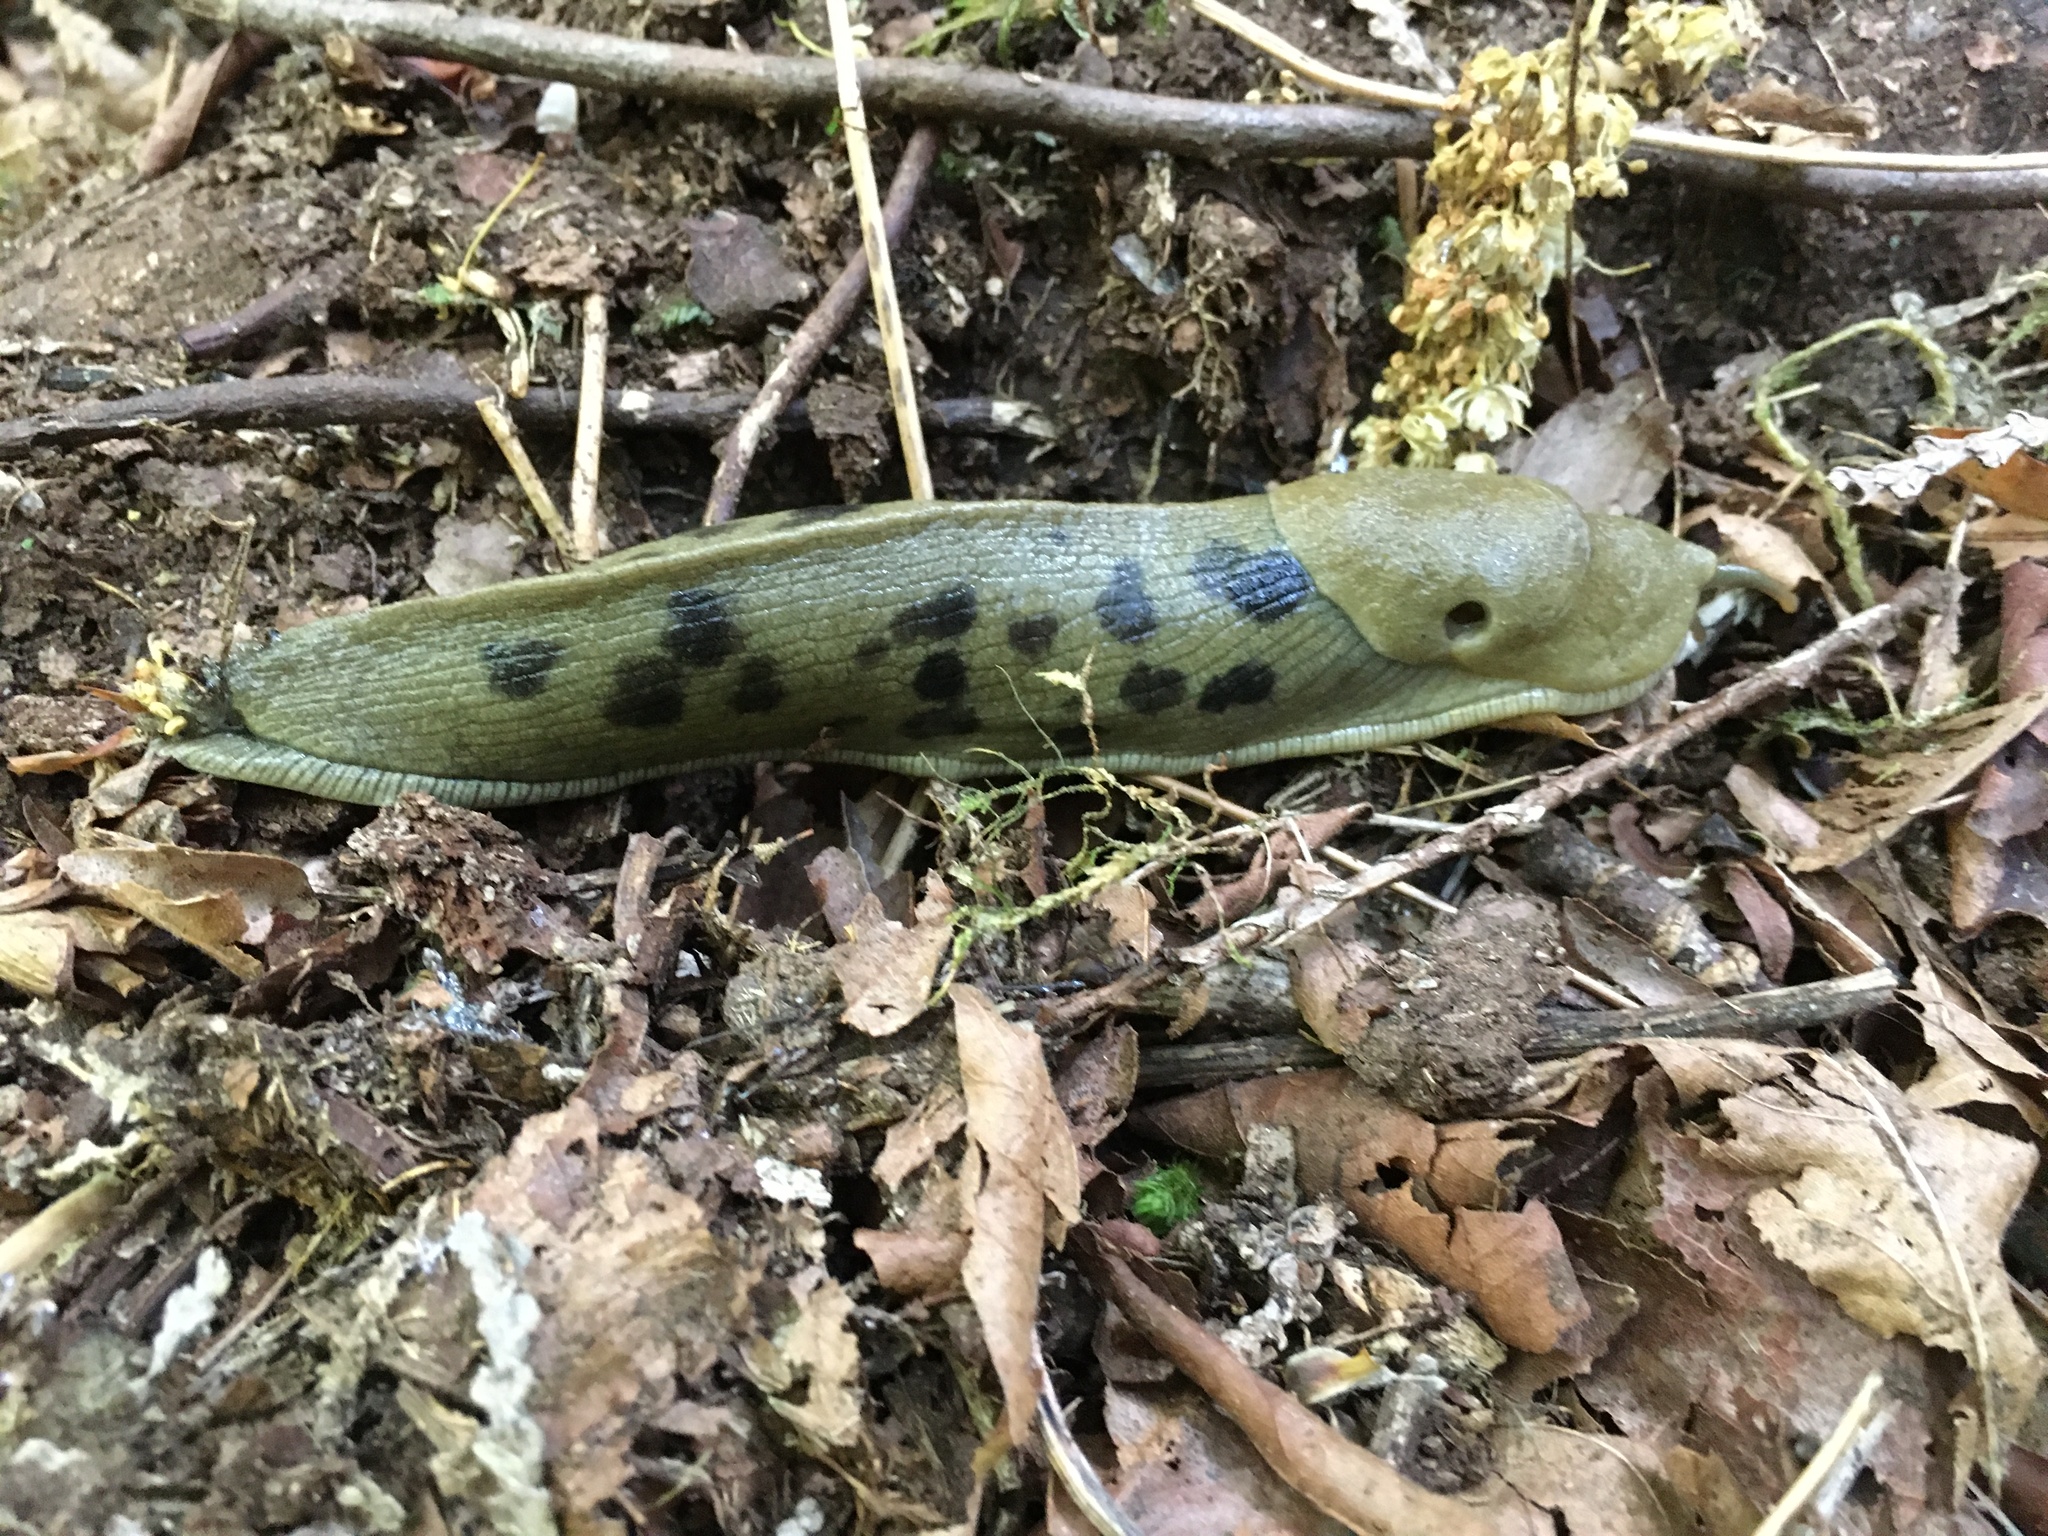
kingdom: Animalia
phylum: Mollusca
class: Gastropoda
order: Stylommatophora
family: Ariolimacidae
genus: Ariolimax
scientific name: Ariolimax columbianus
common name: Pacific banana slug
